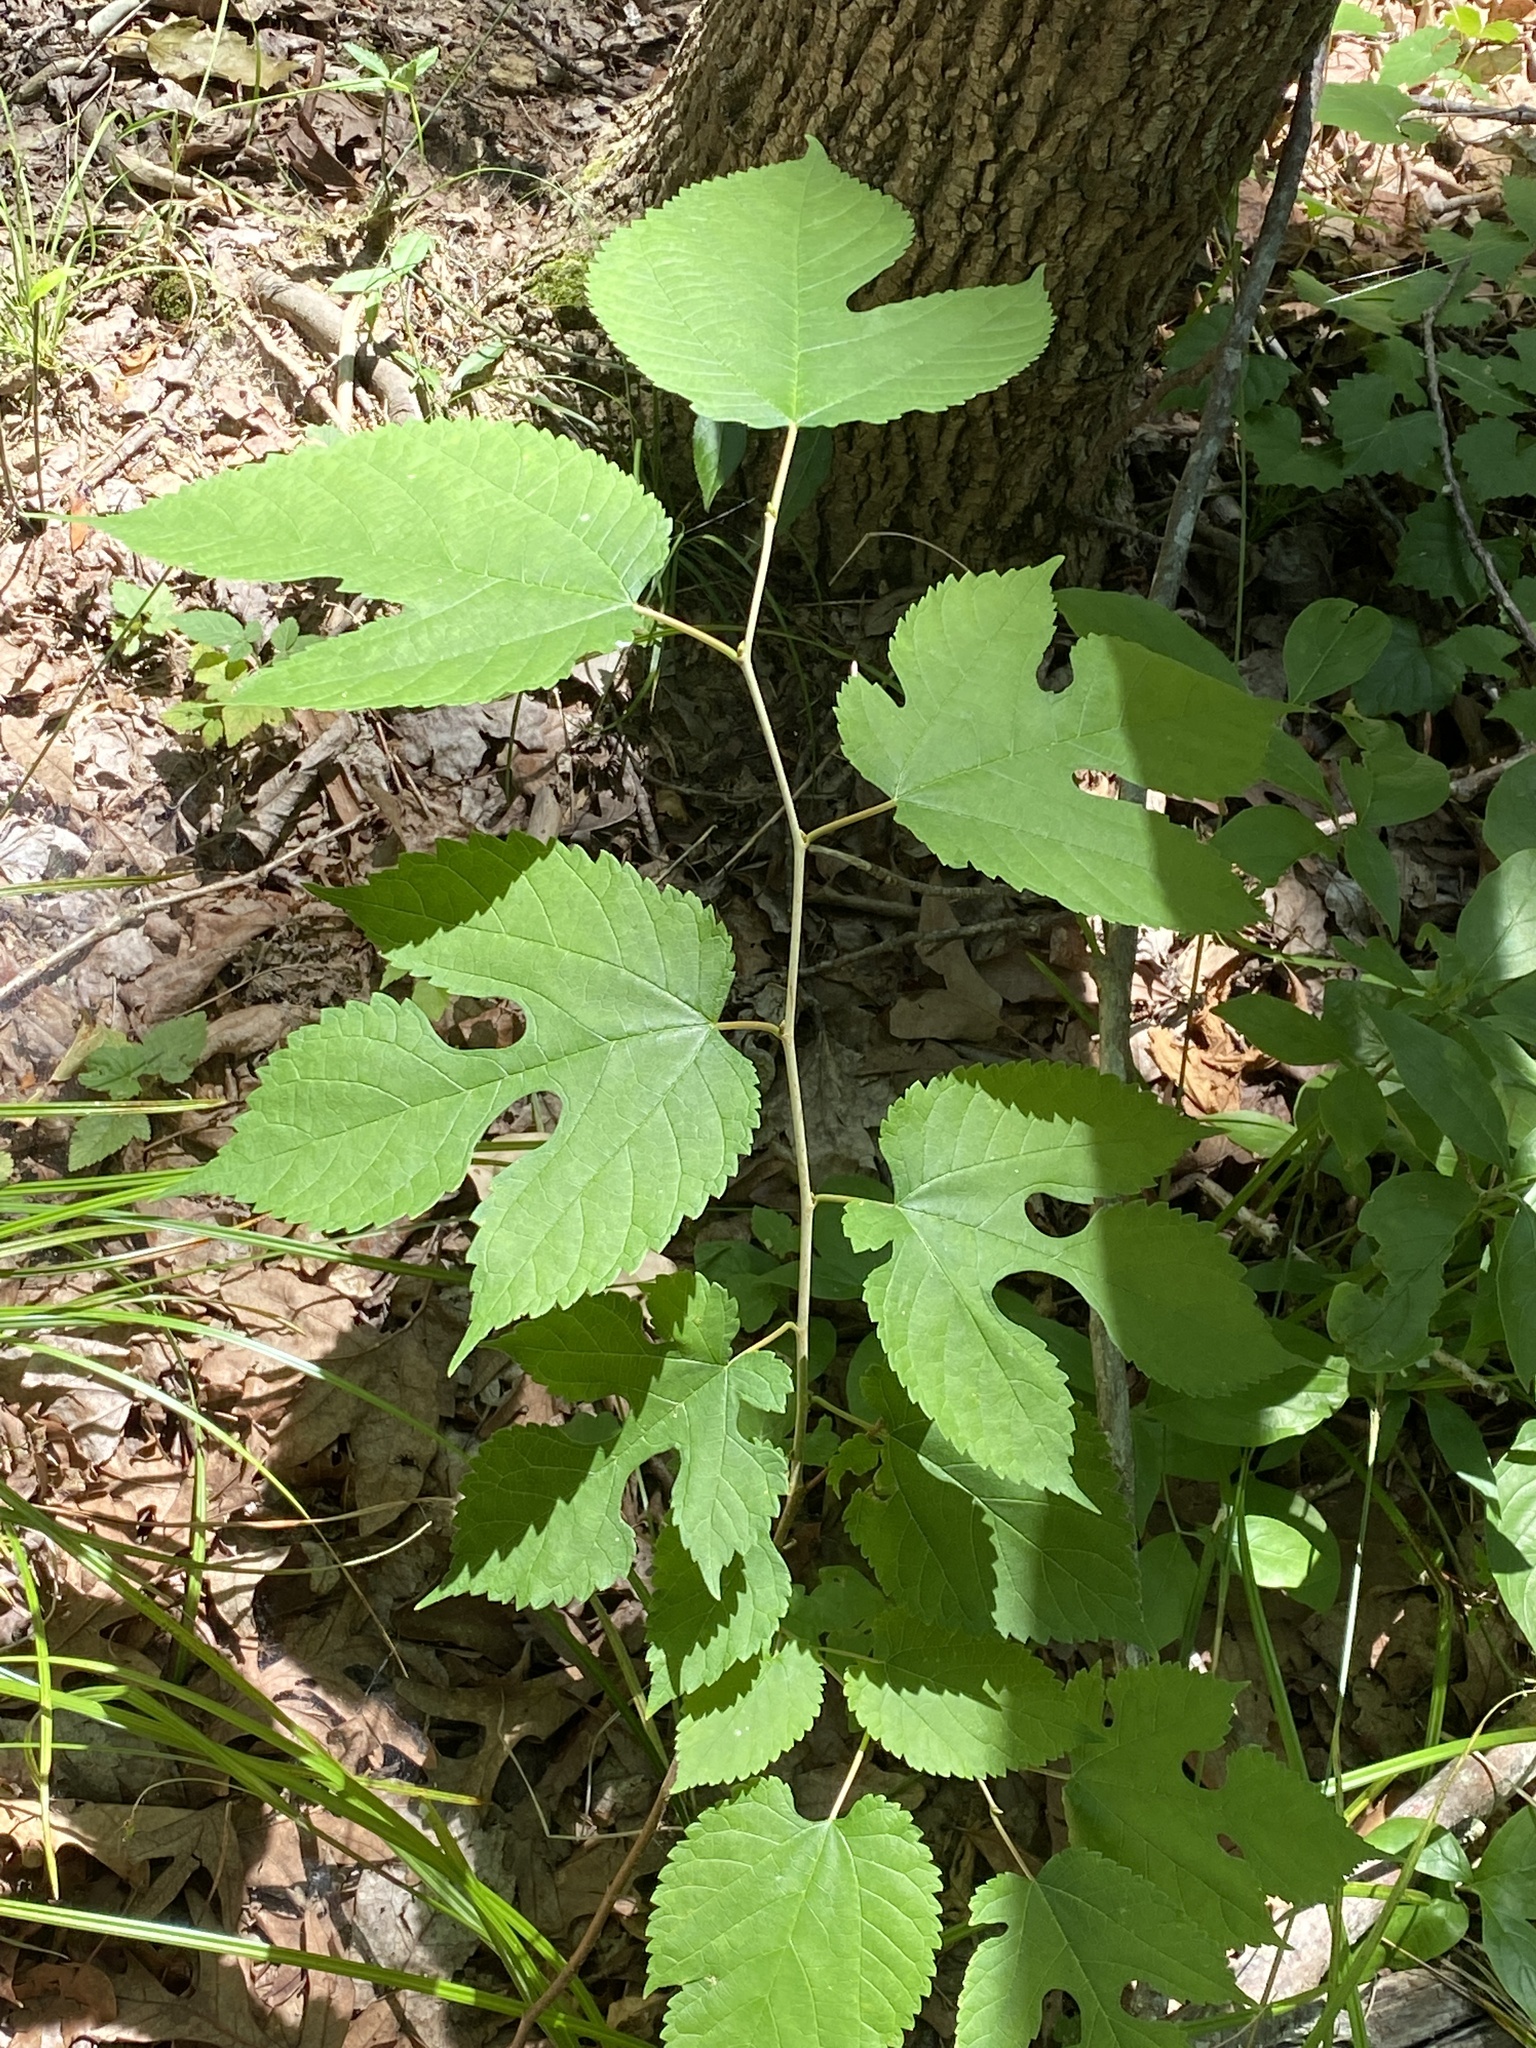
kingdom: Plantae
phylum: Tracheophyta
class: Magnoliopsida
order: Rosales
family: Moraceae
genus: Morus
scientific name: Morus rubra
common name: Red mulberry
